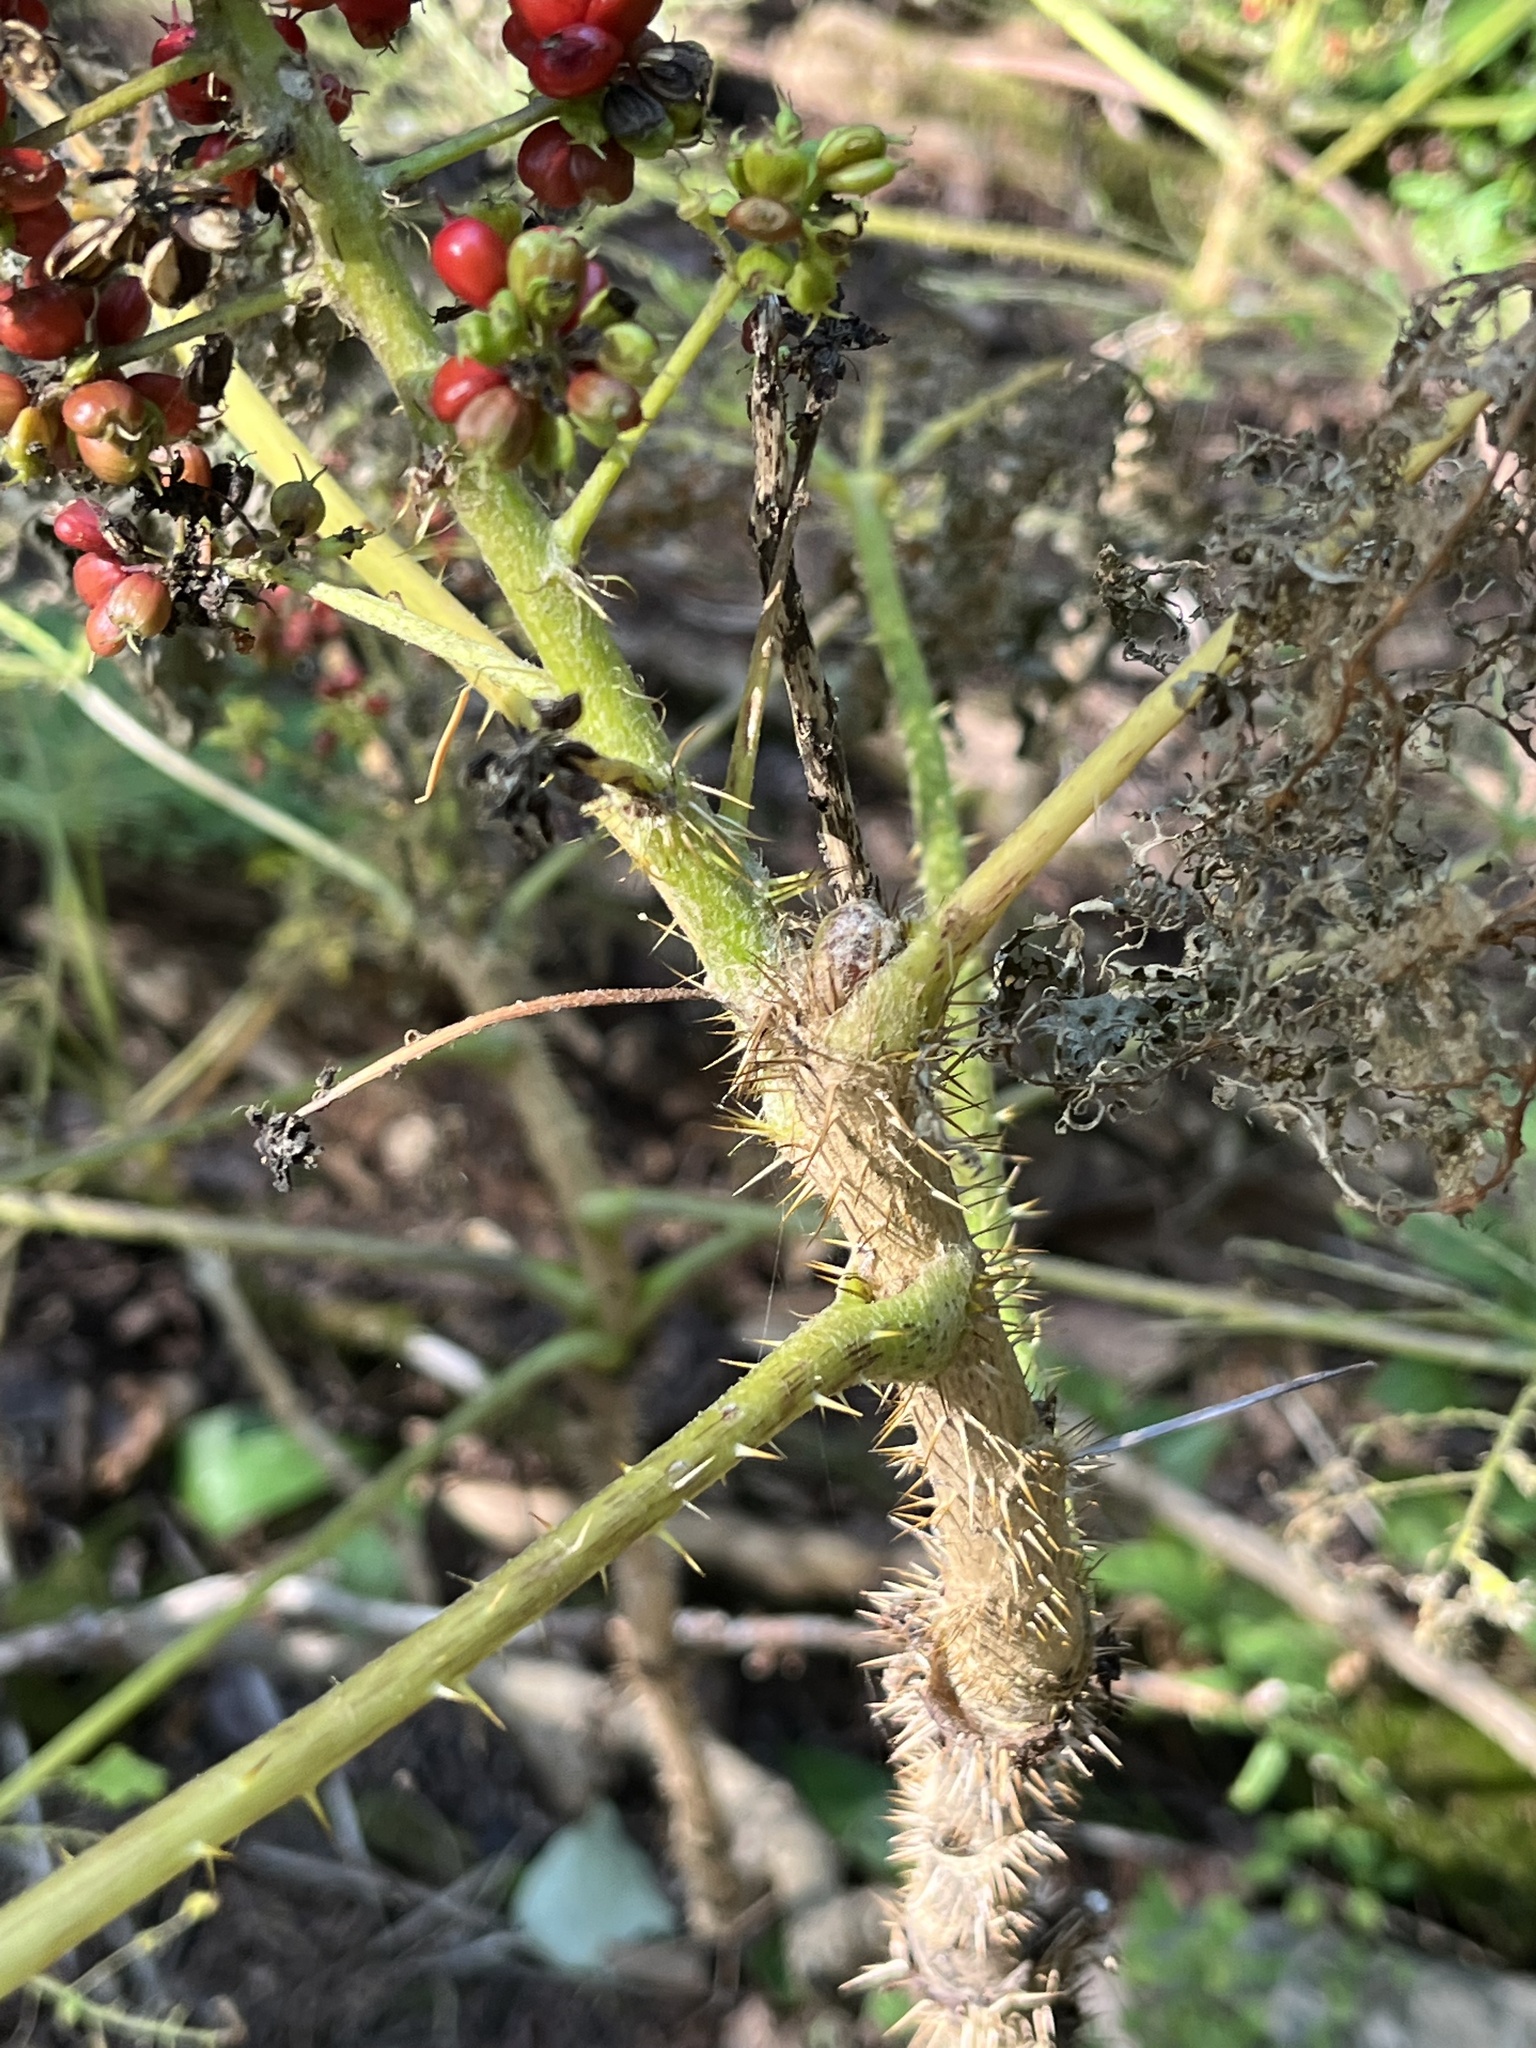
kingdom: Plantae
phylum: Tracheophyta
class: Magnoliopsida
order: Apiales
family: Araliaceae
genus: Oplopanax
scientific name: Oplopanax horridus
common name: Devil's walking-stick
